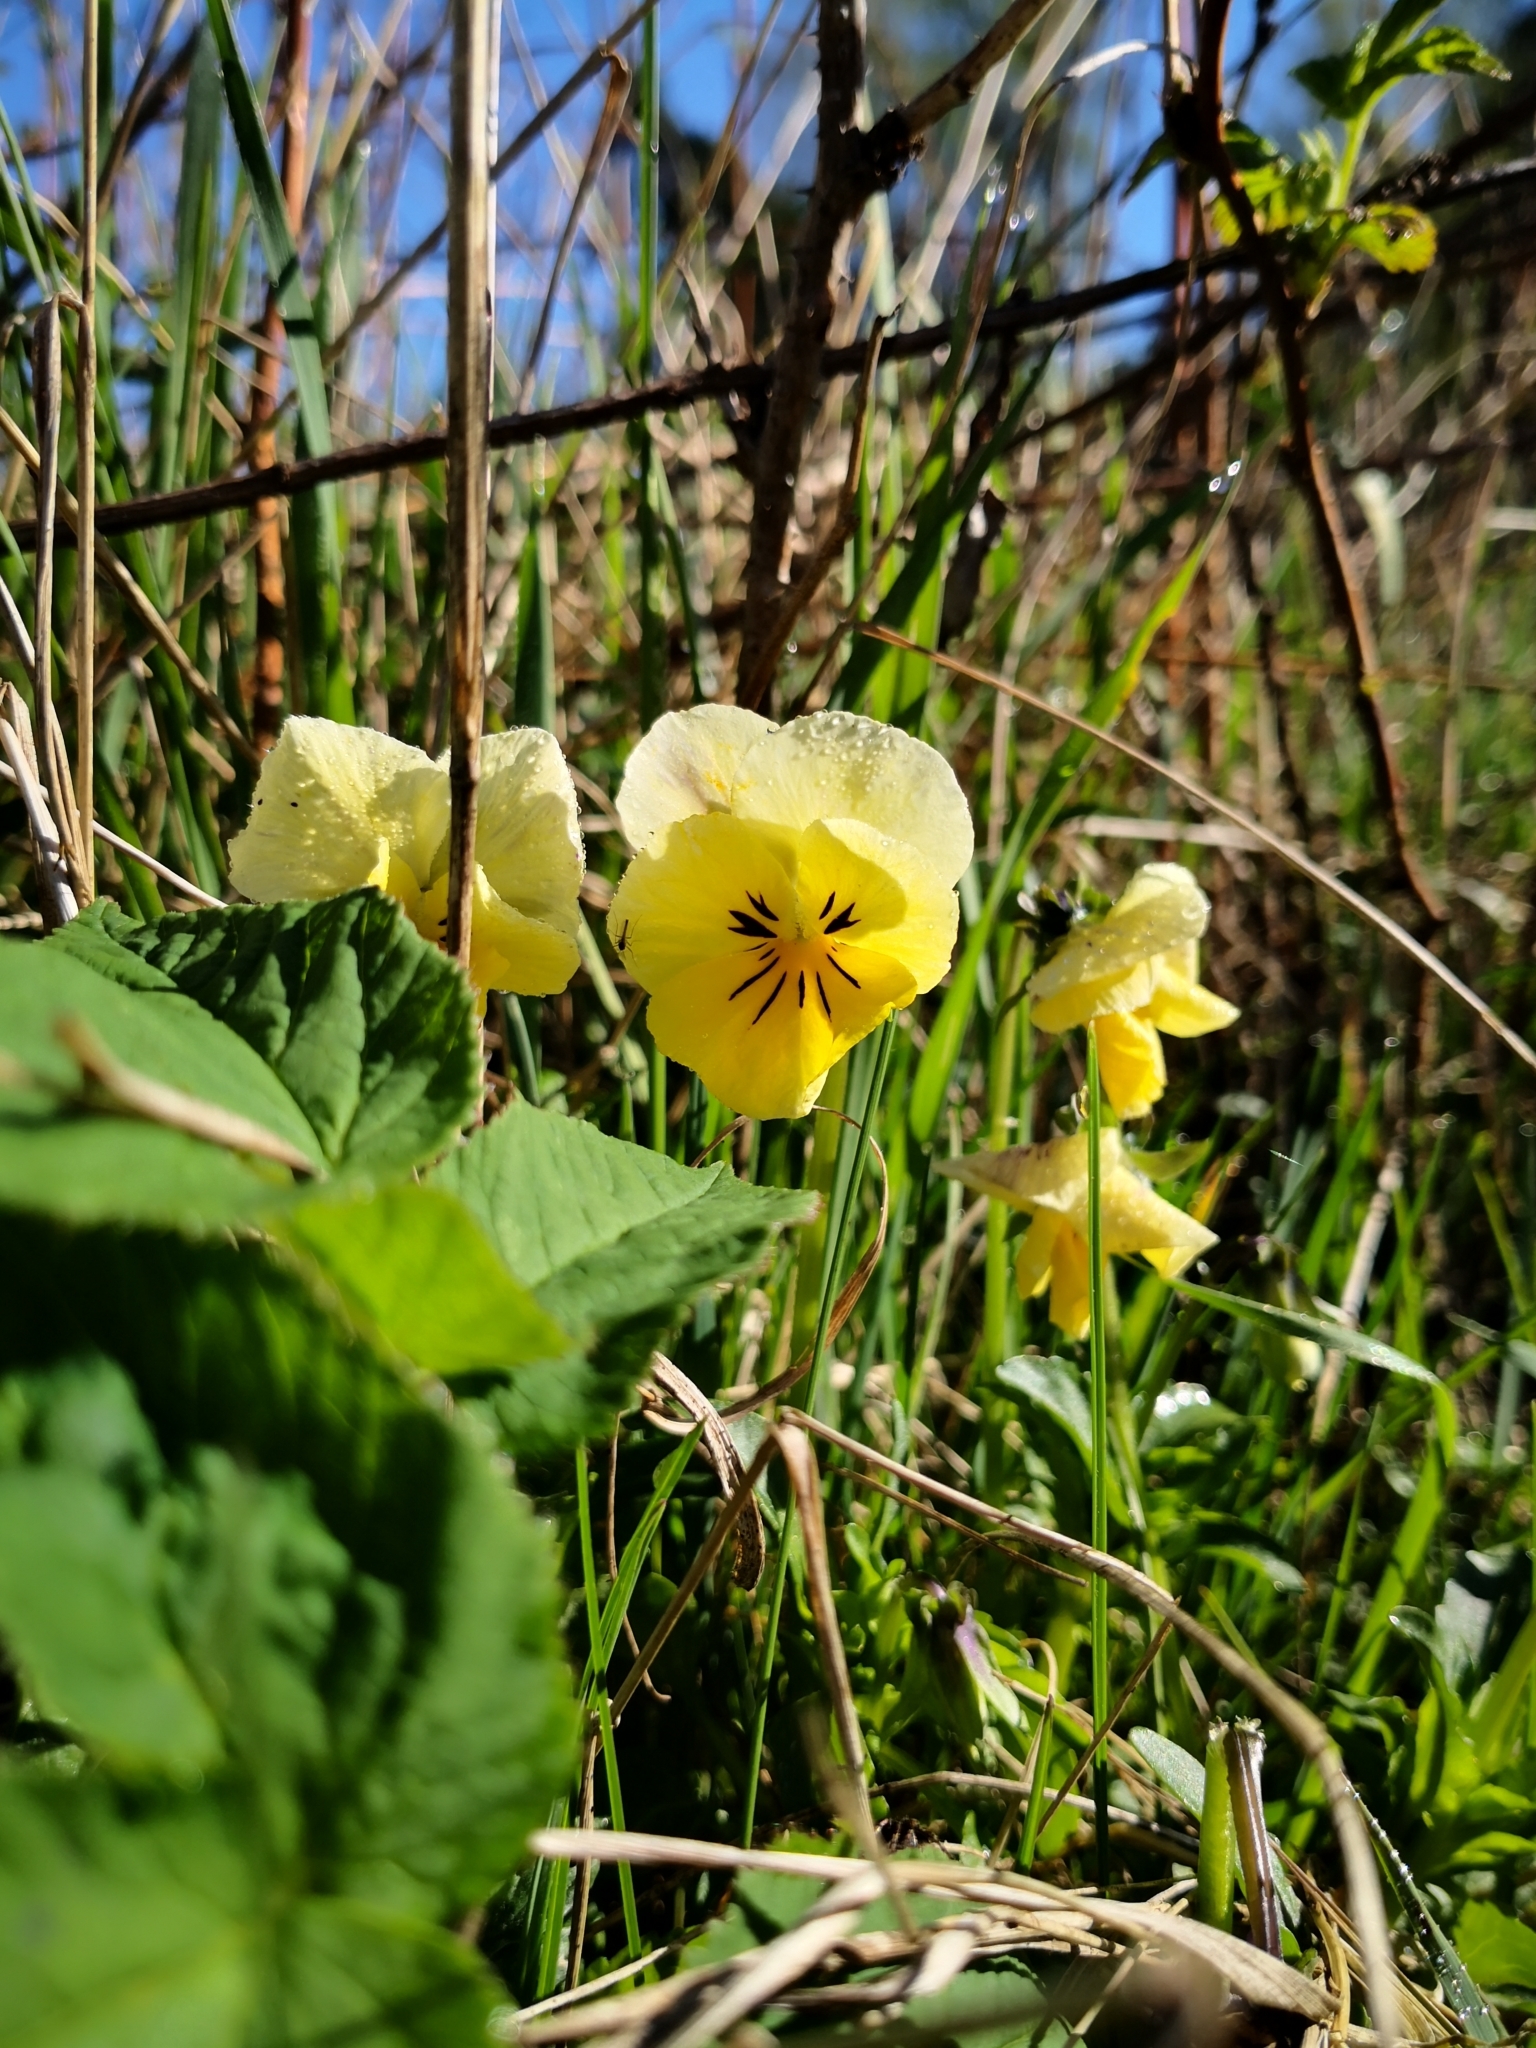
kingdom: Plantae
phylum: Tracheophyta
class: Magnoliopsida
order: Malpighiales
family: Violaceae
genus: Viola
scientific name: Viola wittrockiana
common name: Garden pansy
